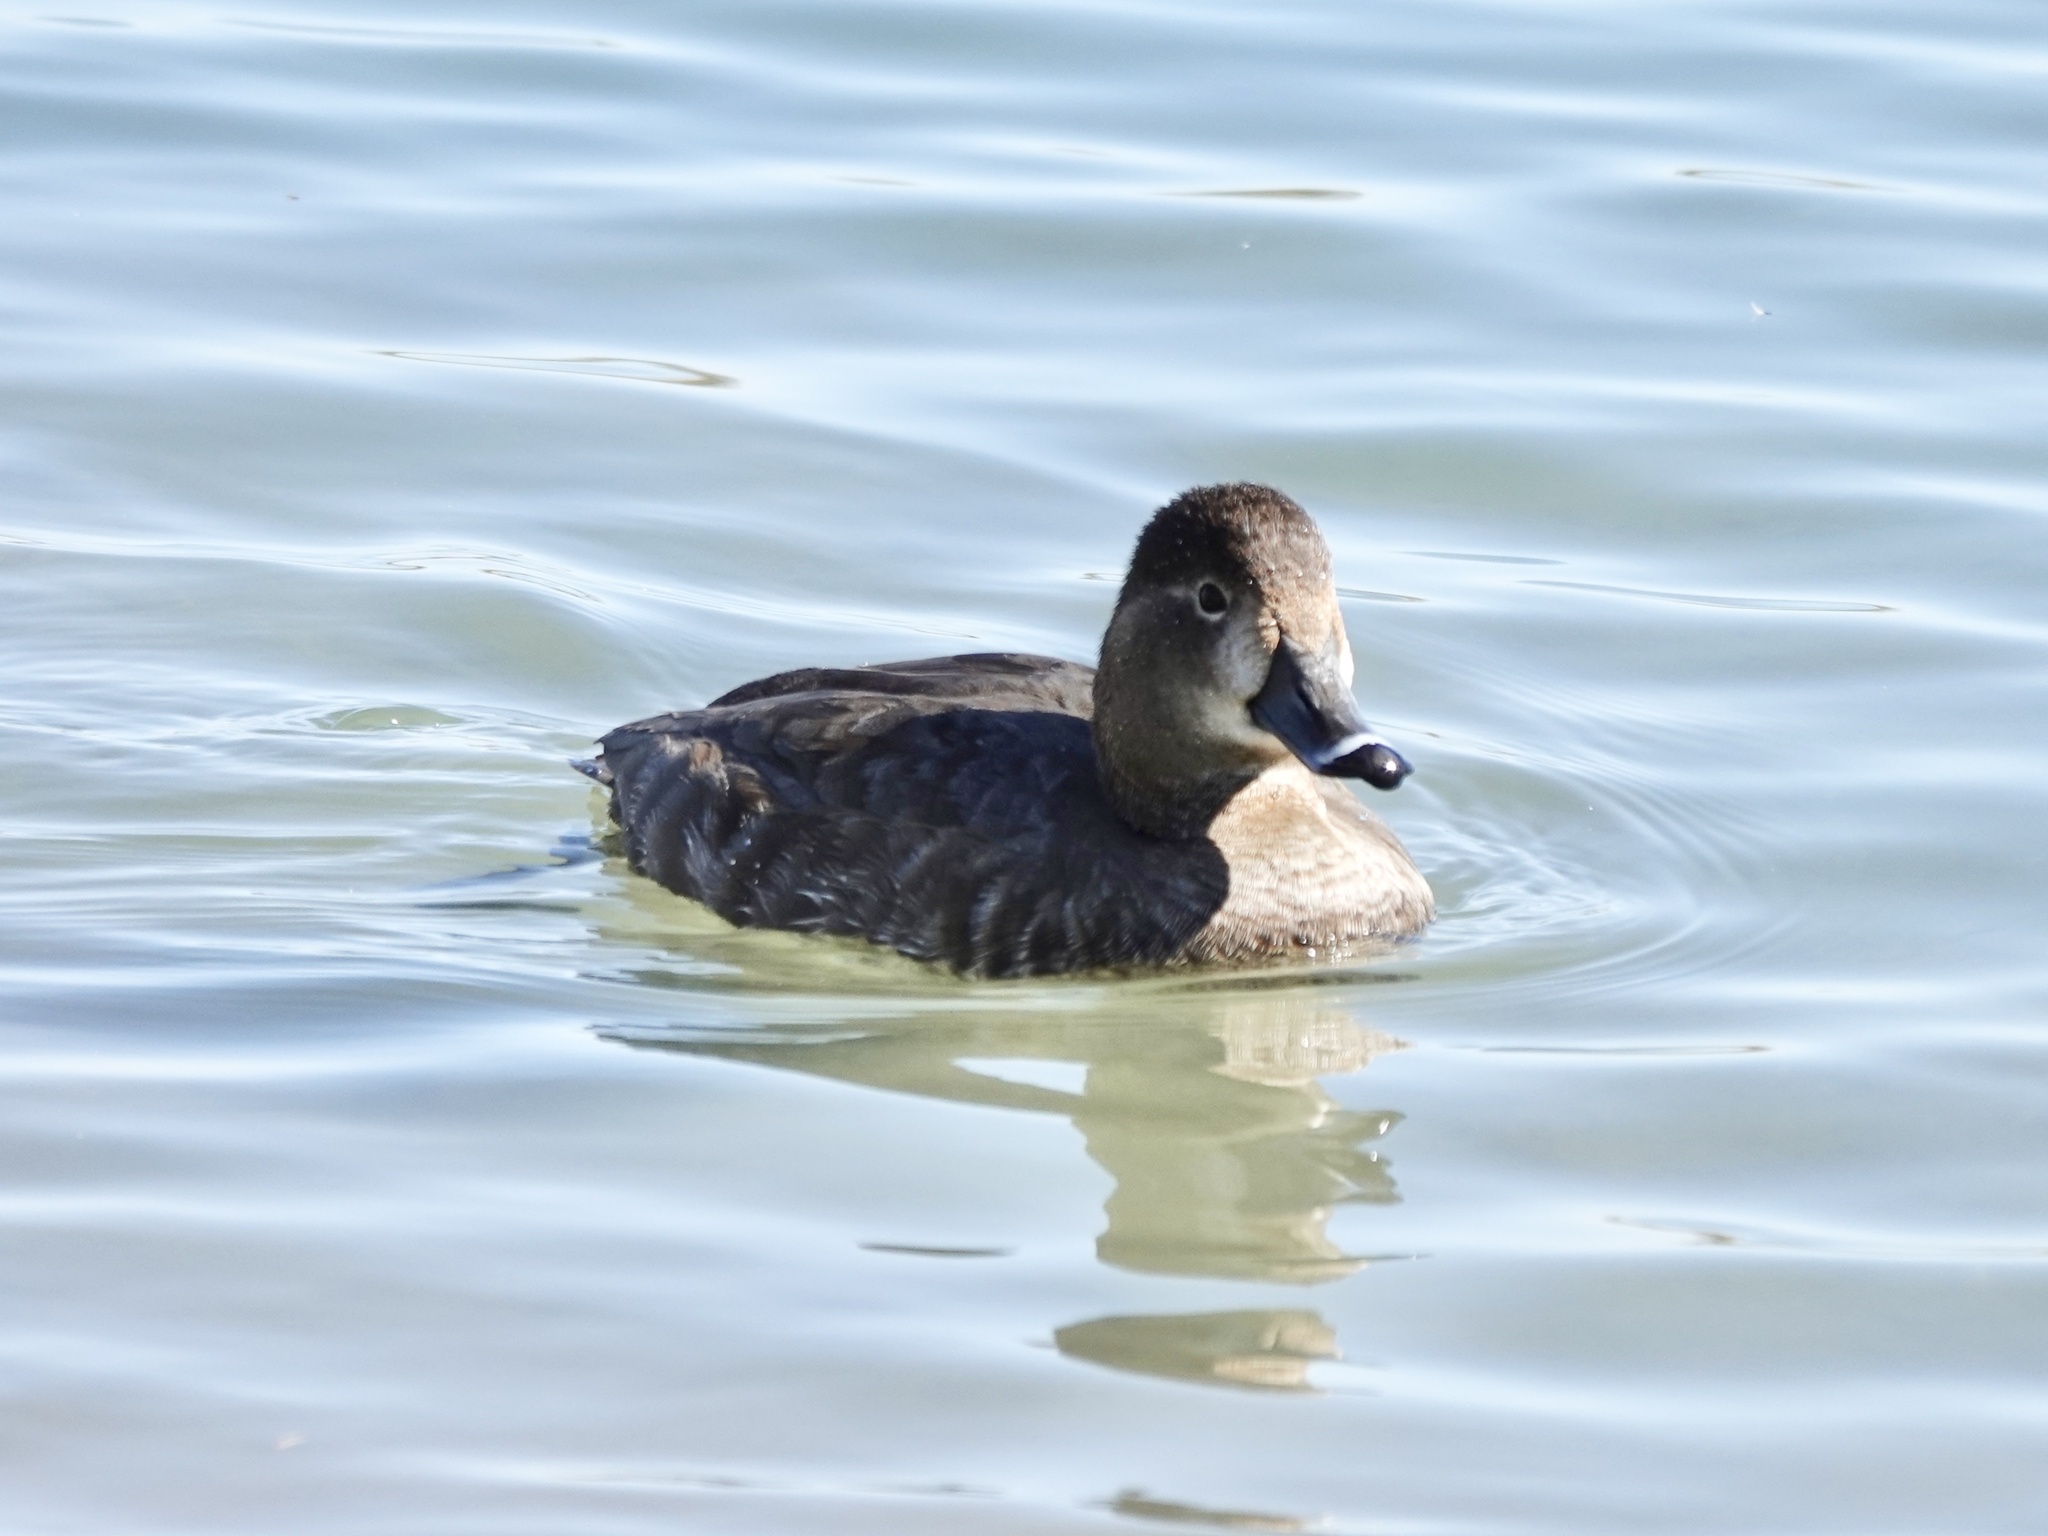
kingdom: Animalia
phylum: Chordata
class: Aves
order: Anseriformes
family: Anatidae
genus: Aythya
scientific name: Aythya americana
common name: Redhead
